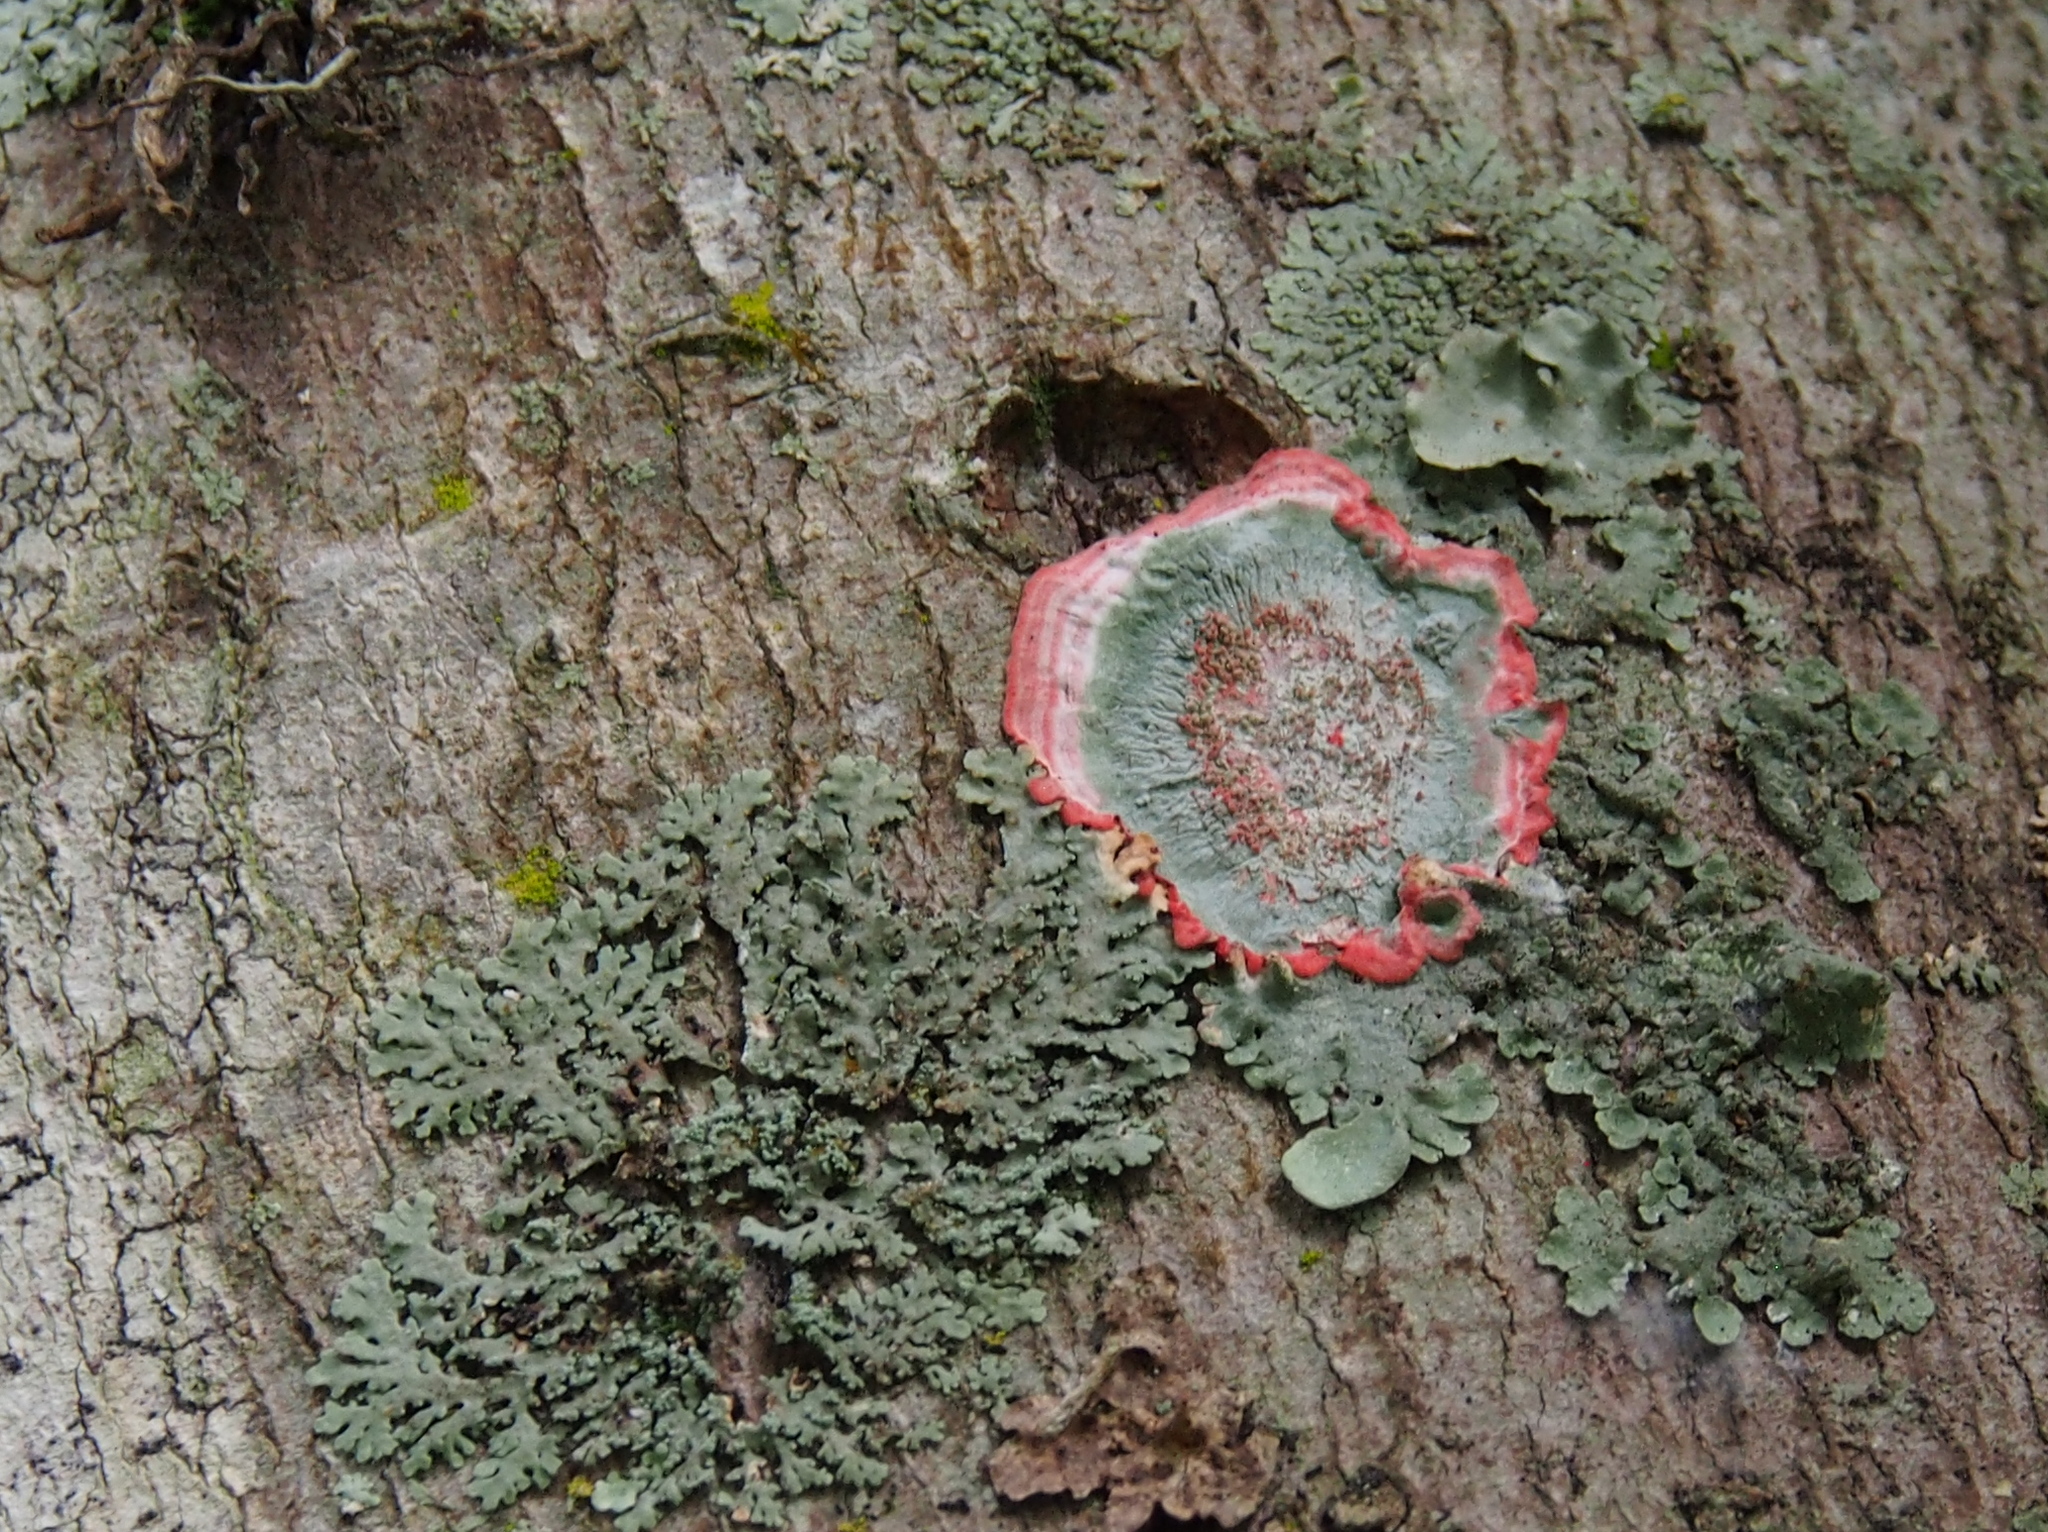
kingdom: Fungi
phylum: Ascomycota
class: Arthoniomycetes
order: Arthoniales
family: Arthoniaceae
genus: Herpothallon
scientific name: Herpothallon rubrocinctum
